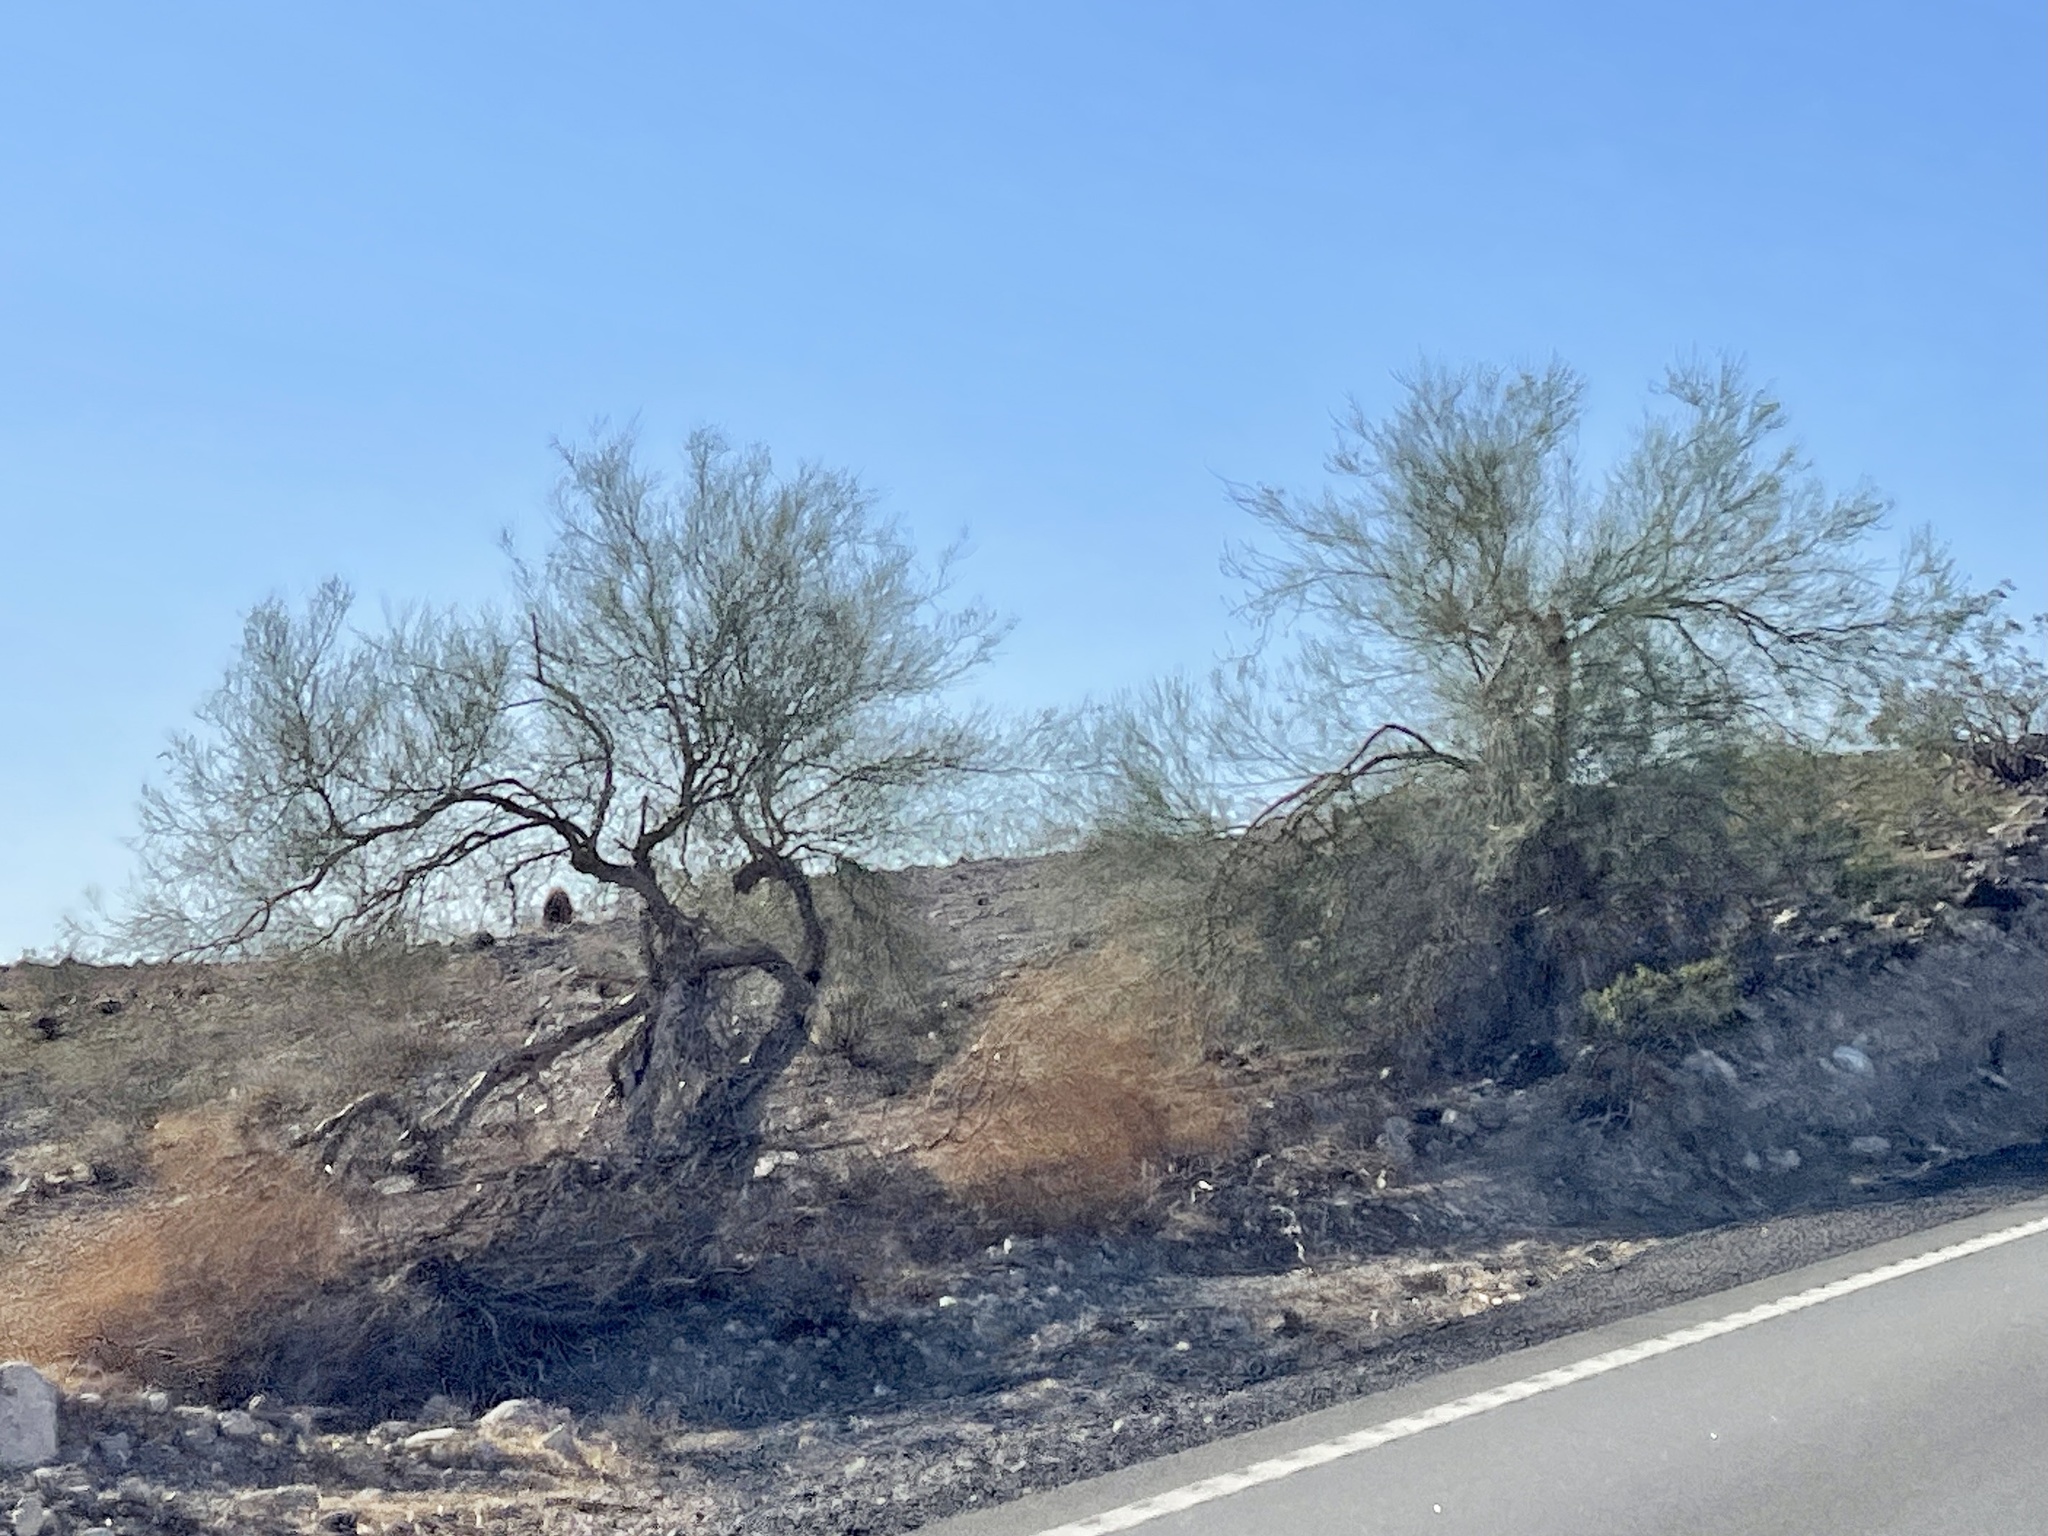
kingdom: Plantae
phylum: Tracheophyta
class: Magnoliopsida
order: Fabales
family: Fabaceae
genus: Parkinsonia
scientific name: Parkinsonia florida
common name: Blue paloverde
